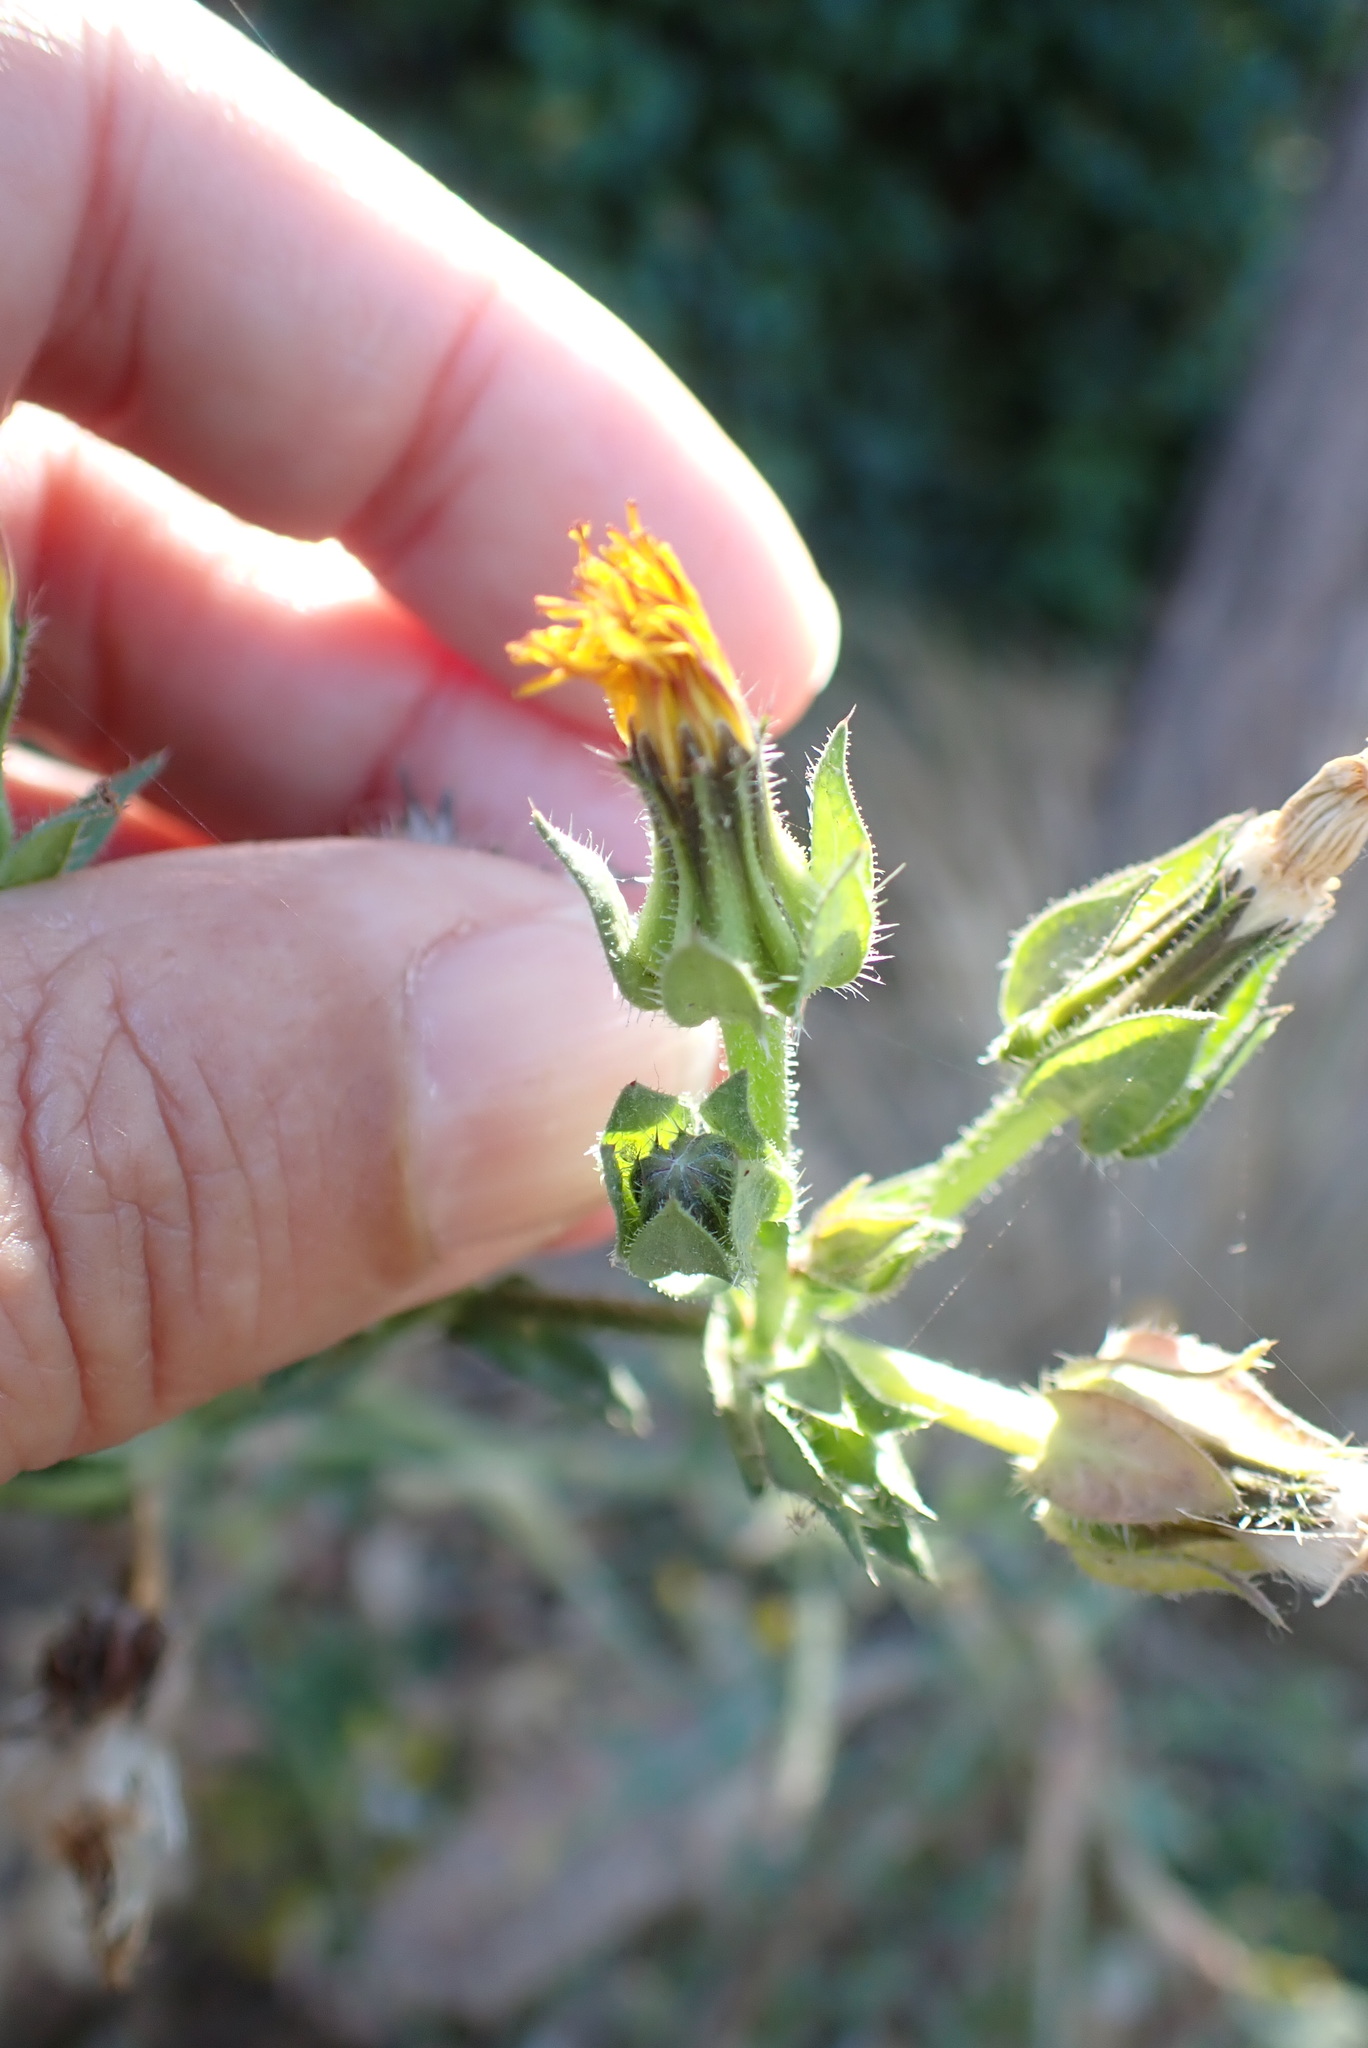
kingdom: Plantae
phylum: Tracheophyta
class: Magnoliopsida
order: Asterales
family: Asteraceae
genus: Helminthotheca
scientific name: Helminthotheca echioides
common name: Ox-tongue
